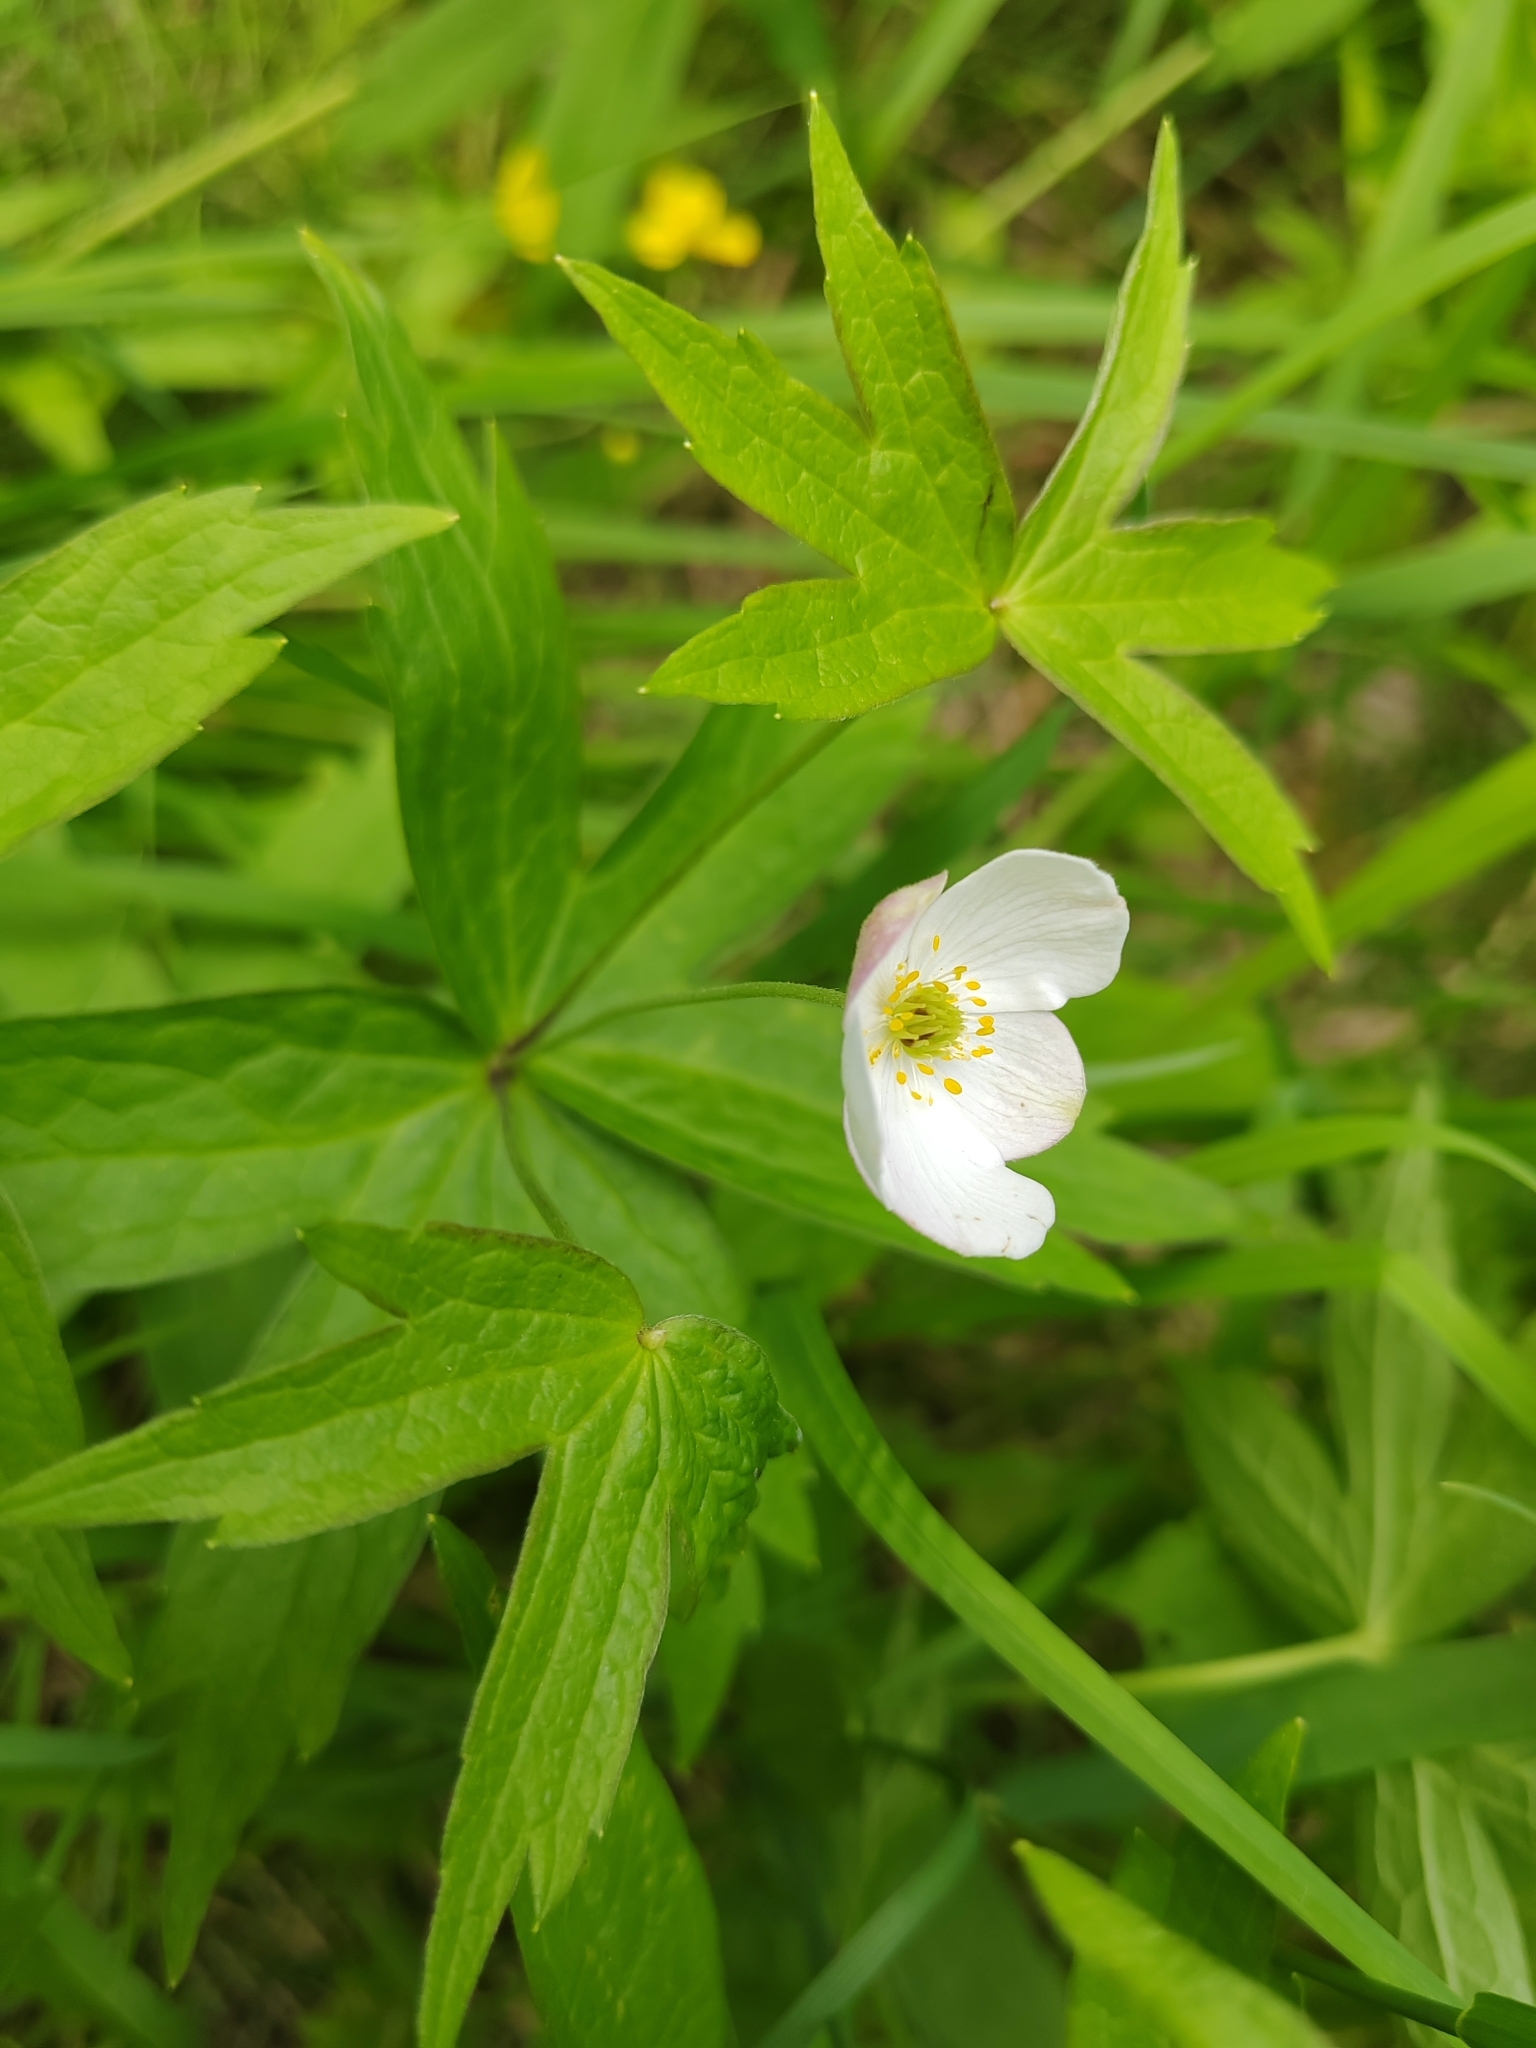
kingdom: Plantae
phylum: Tracheophyta
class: Magnoliopsida
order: Ranunculales
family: Ranunculaceae
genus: Anemonastrum
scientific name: Anemonastrum dichotomum
